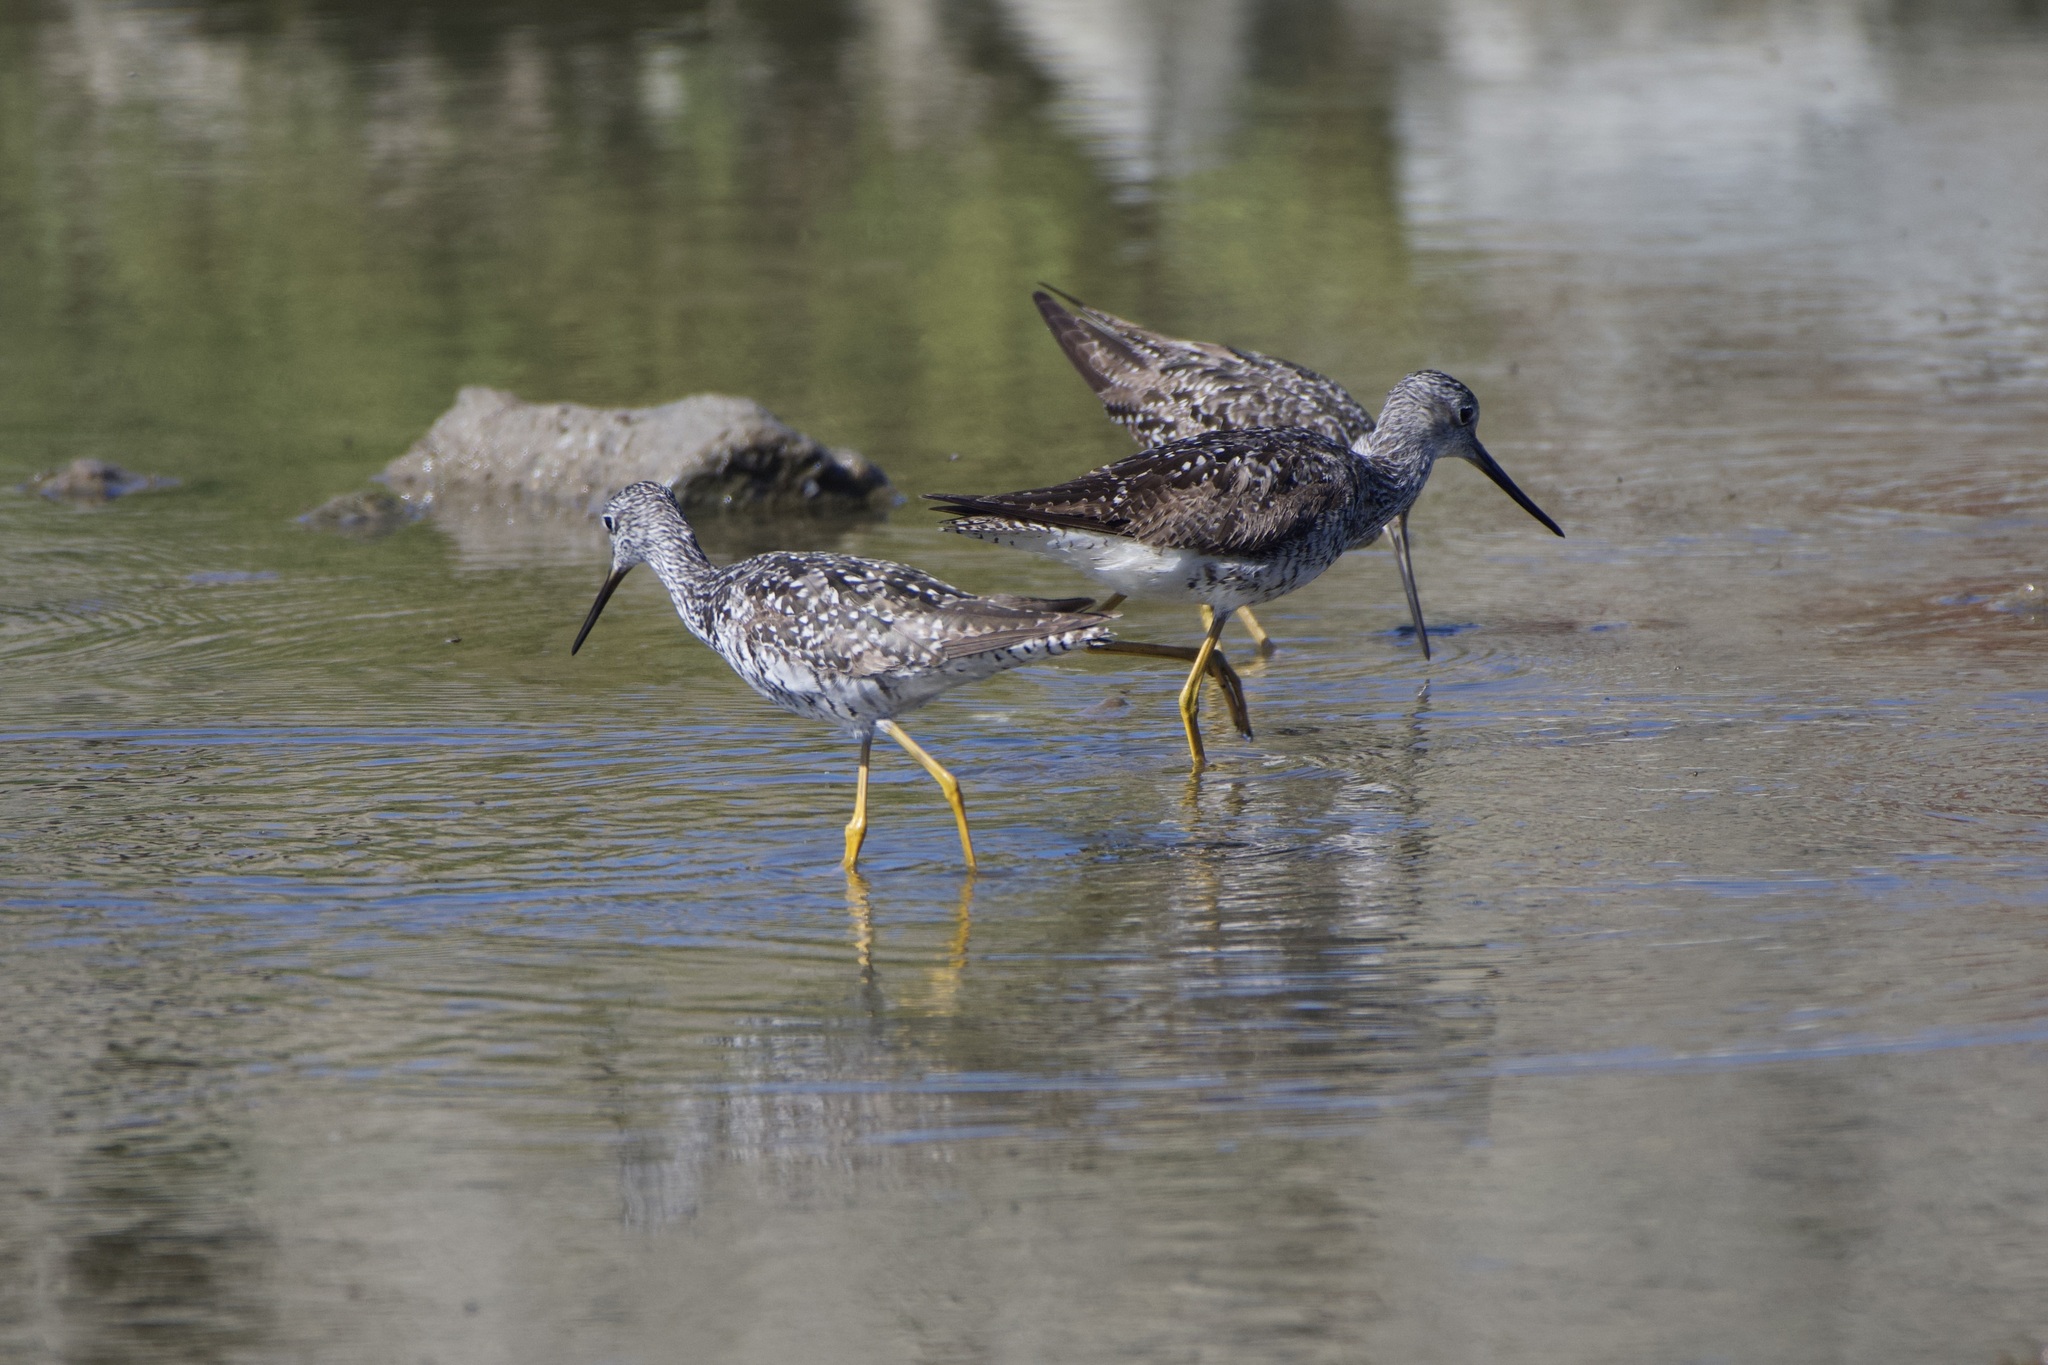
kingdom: Animalia
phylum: Chordata
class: Aves
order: Charadriiformes
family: Scolopacidae
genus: Tringa
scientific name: Tringa melanoleuca
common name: Greater yellowlegs
